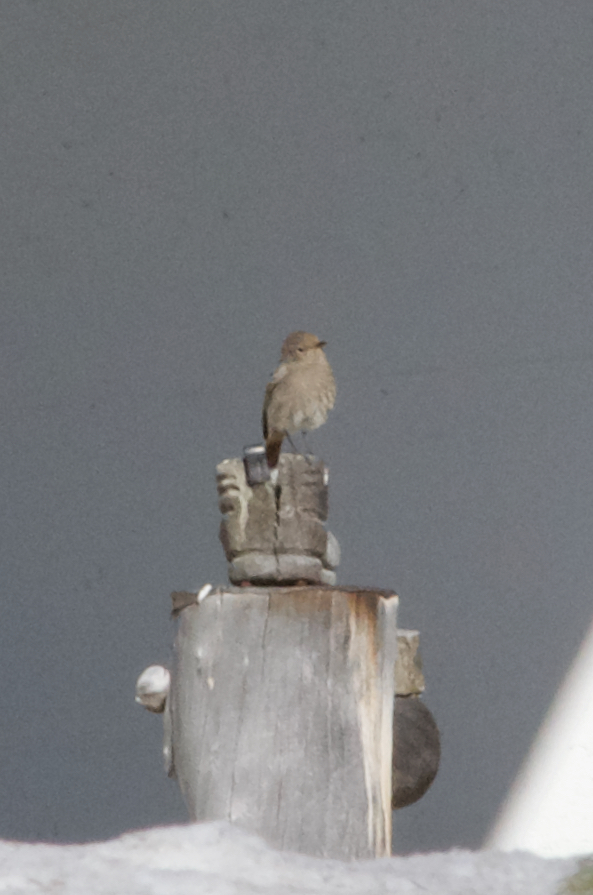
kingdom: Animalia
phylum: Chordata
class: Aves
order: Passeriformes
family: Muscicapidae
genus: Phoenicurus
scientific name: Phoenicurus ochruros
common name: Black redstart
